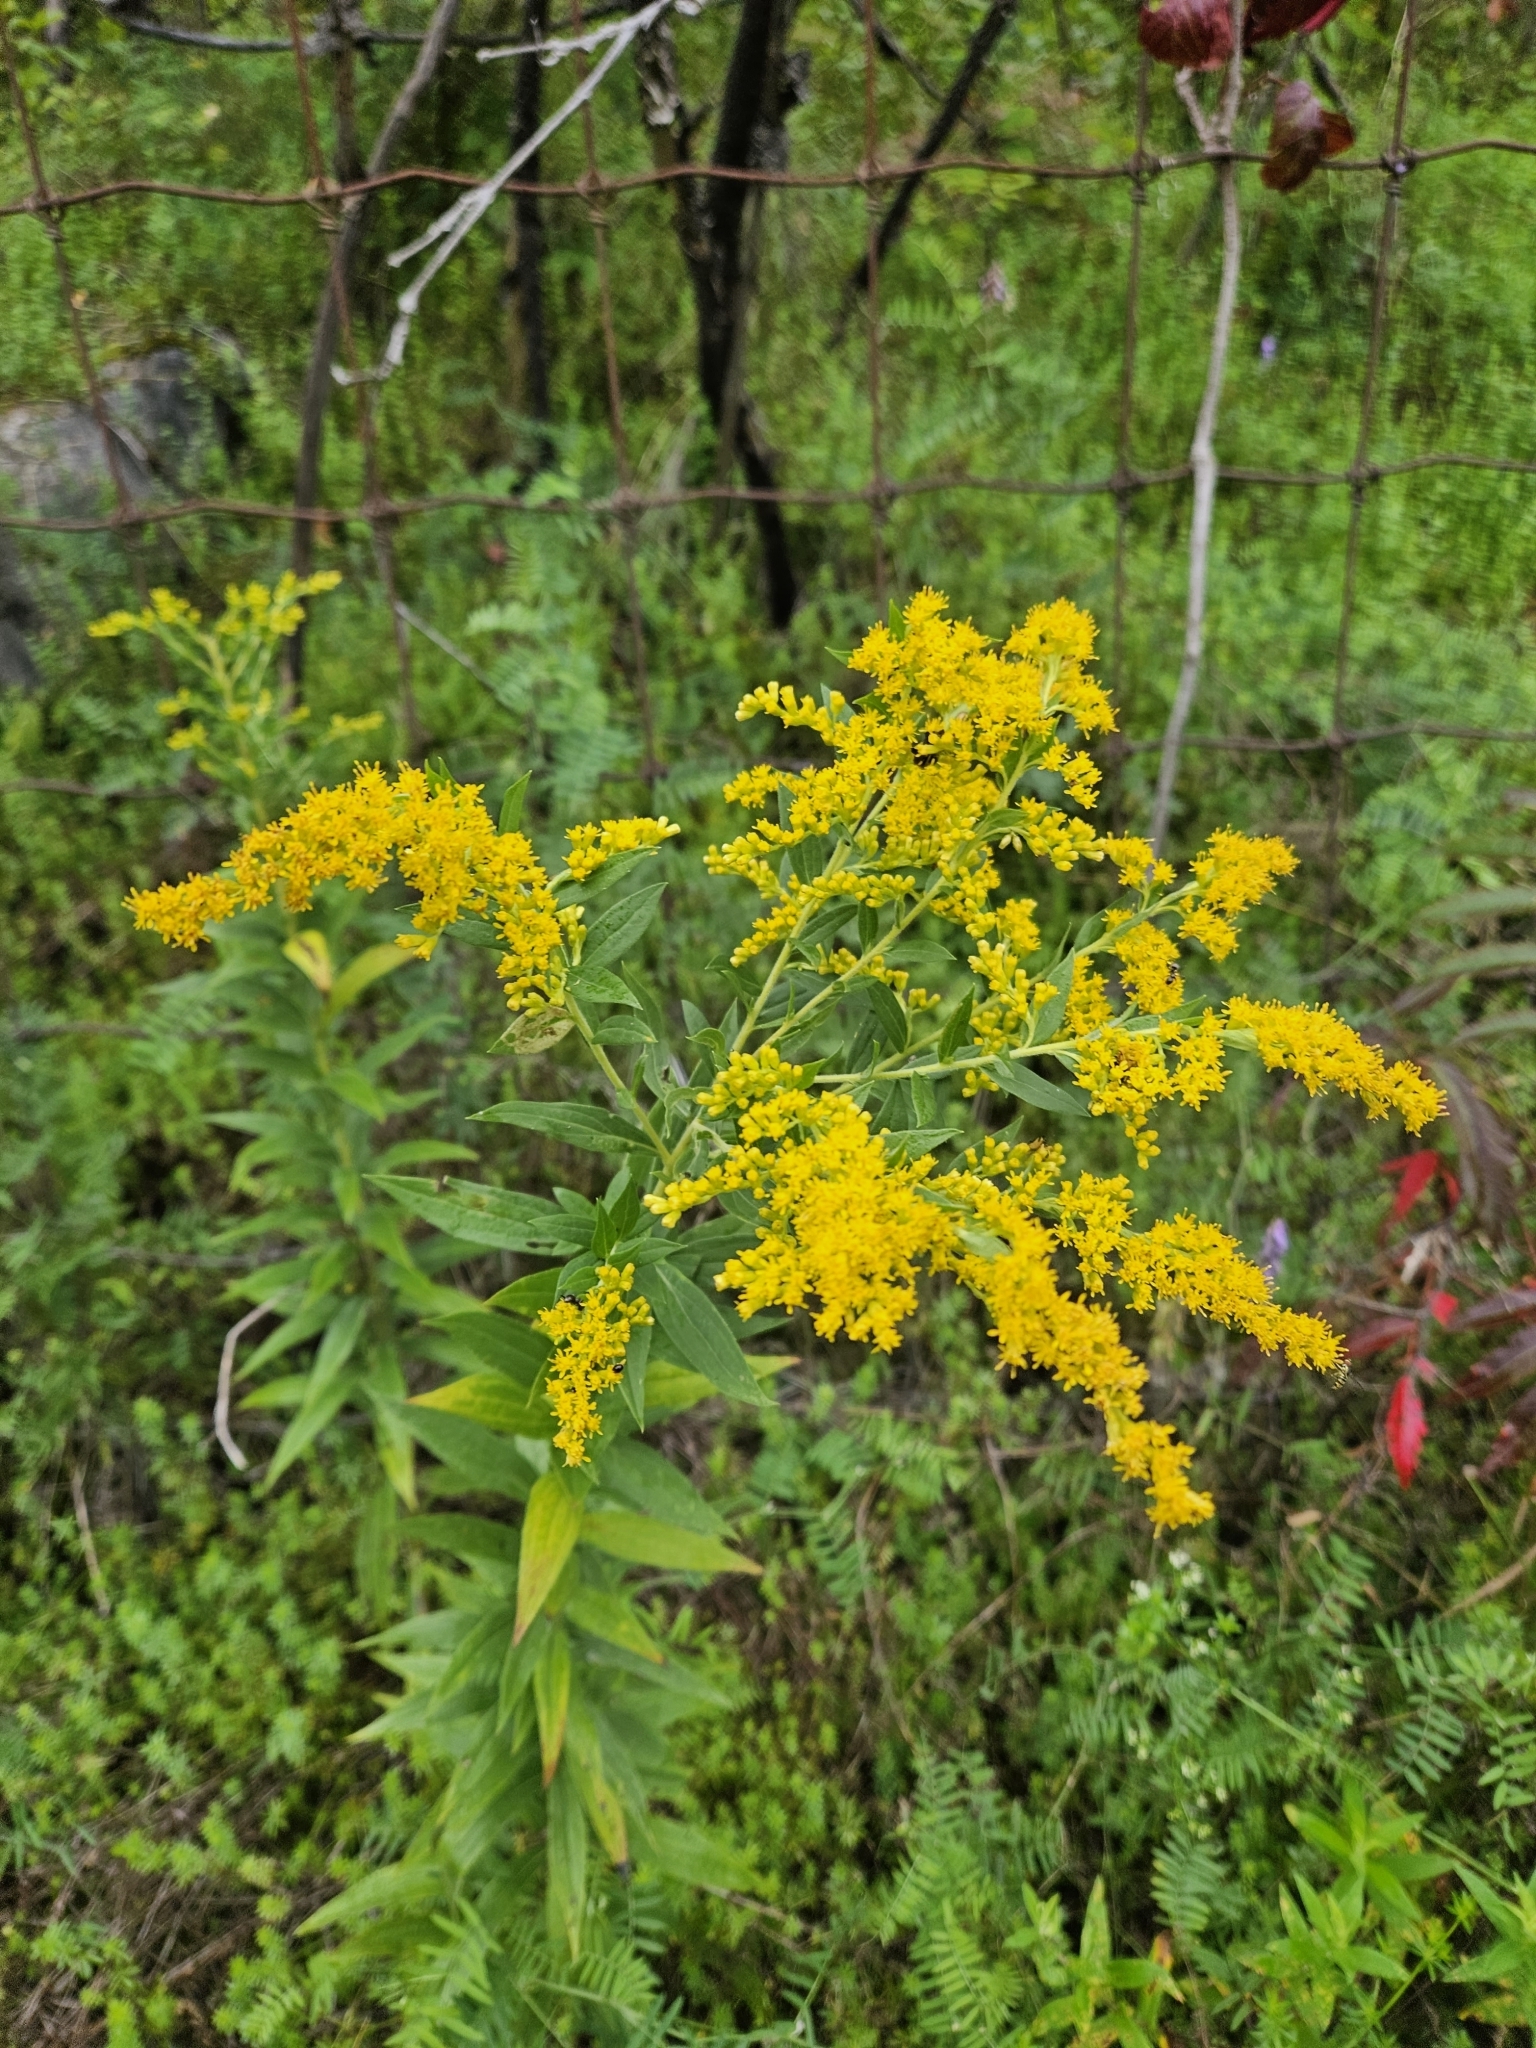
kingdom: Plantae
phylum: Tracheophyta
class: Magnoliopsida
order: Asterales
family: Asteraceae
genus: Solidago
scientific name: Solidago canadensis
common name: Canada goldenrod
